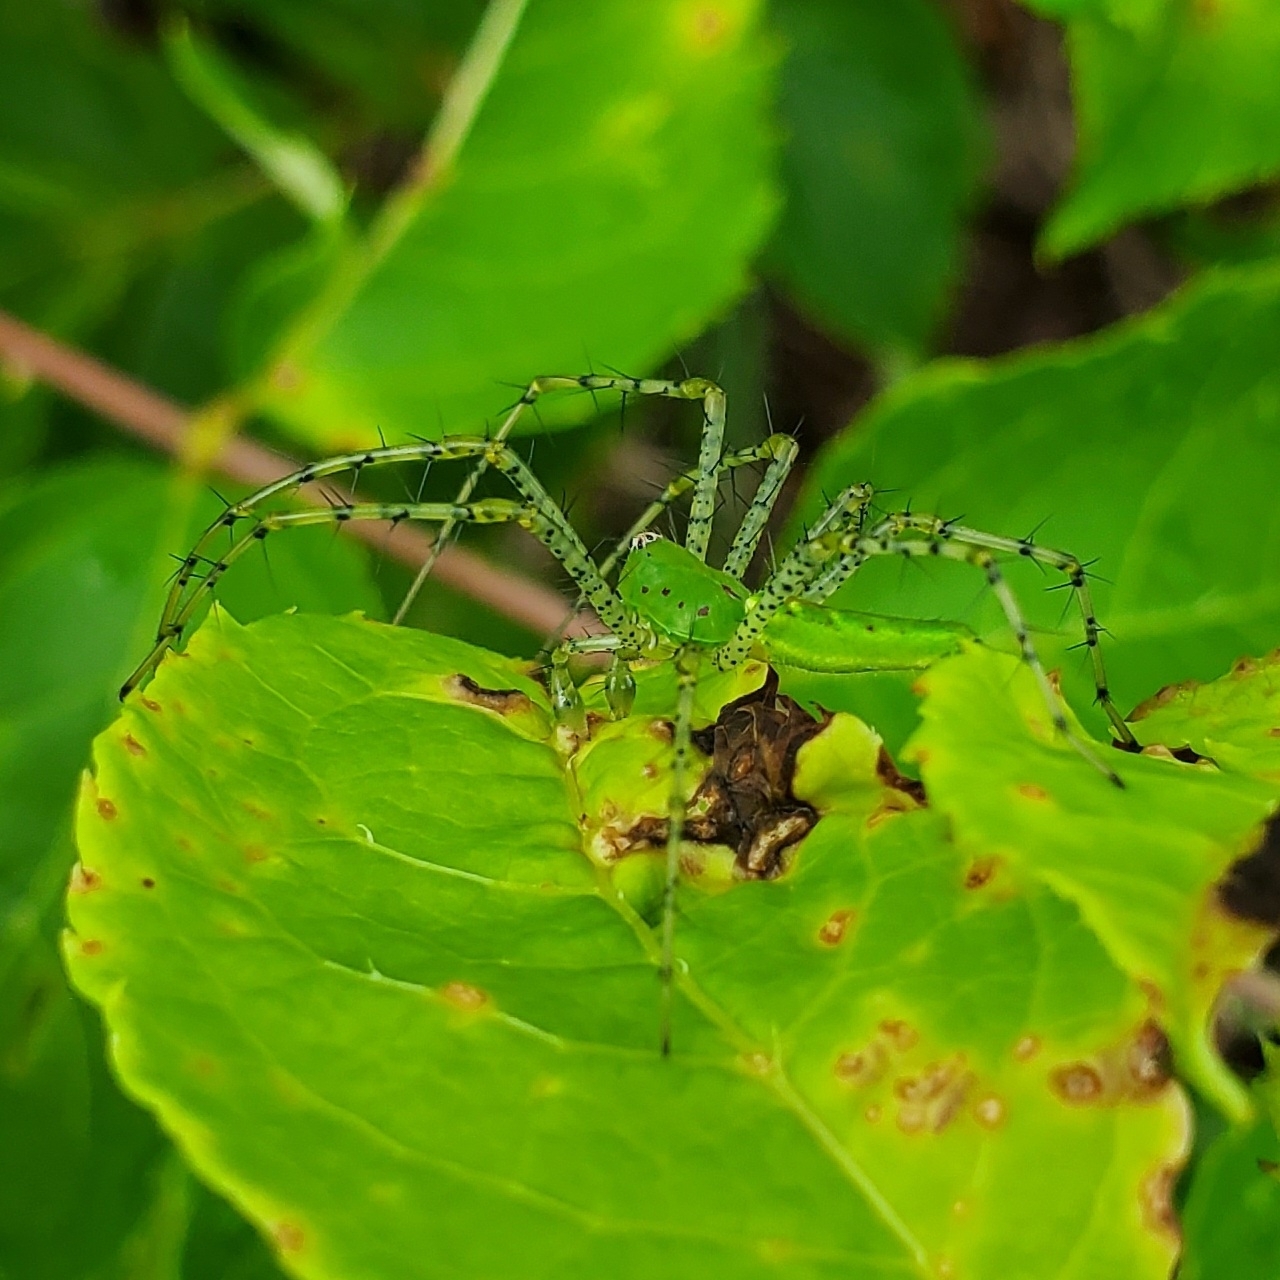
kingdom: Animalia
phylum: Arthropoda
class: Arachnida
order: Araneae
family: Oxyopidae
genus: Peucetia
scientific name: Peucetia viridans
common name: Lynx spiders
